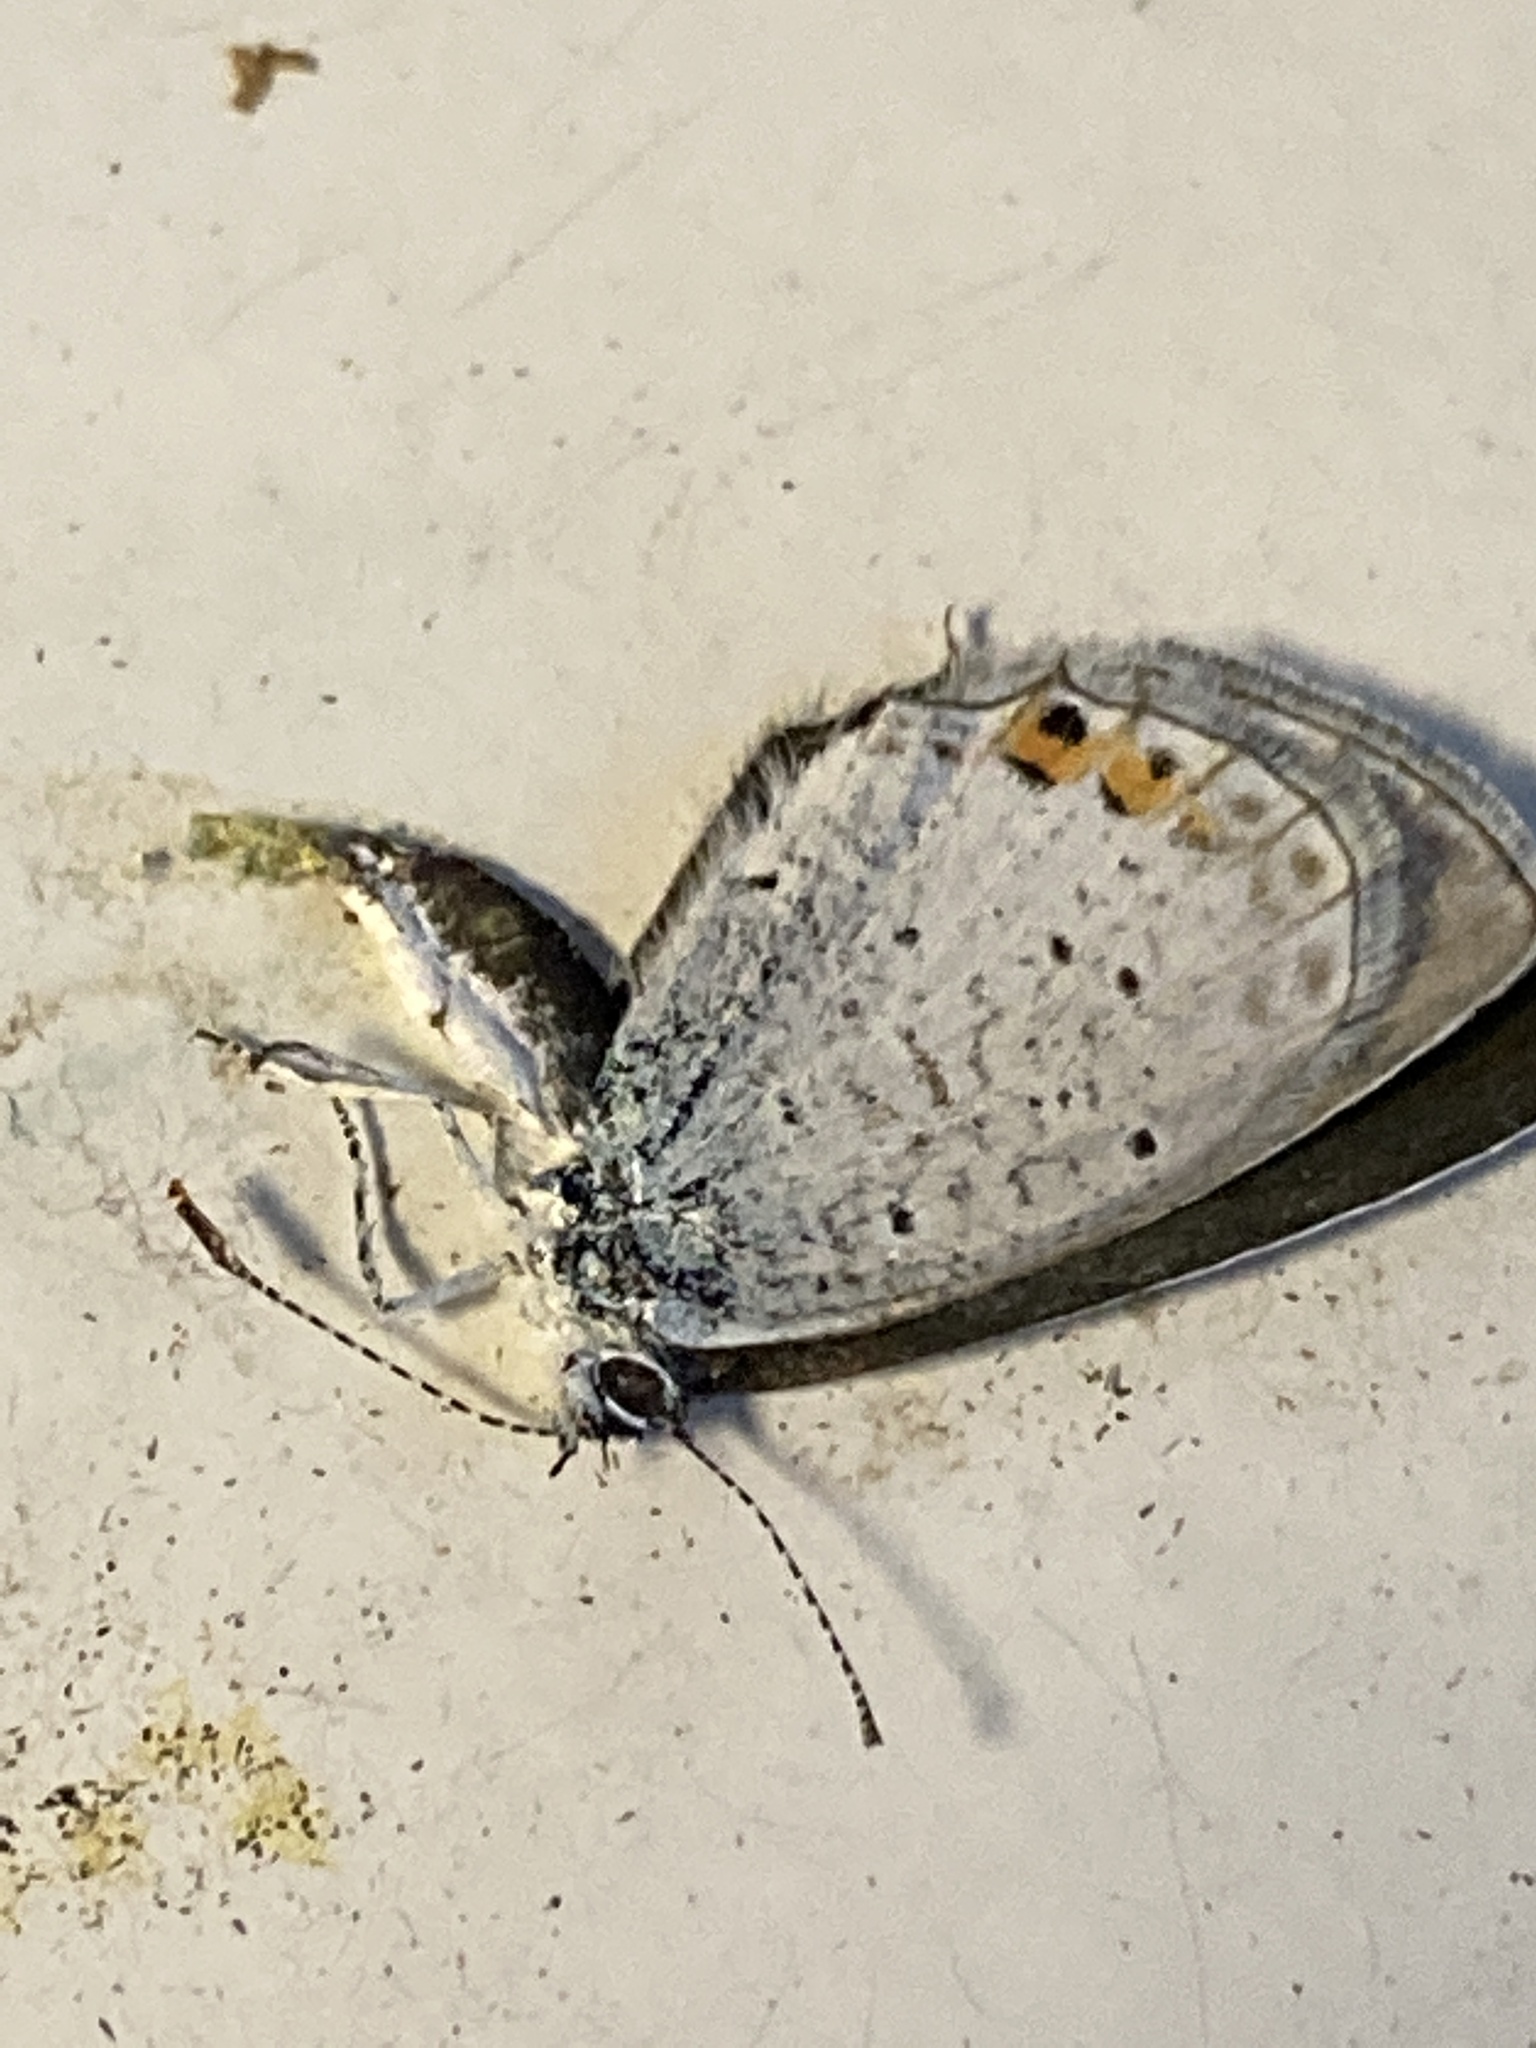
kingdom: Animalia
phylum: Arthropoda
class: Insecta
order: Lepidoptera
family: Lycaenidae
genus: Elkalyce
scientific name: Elkalyce argiades
